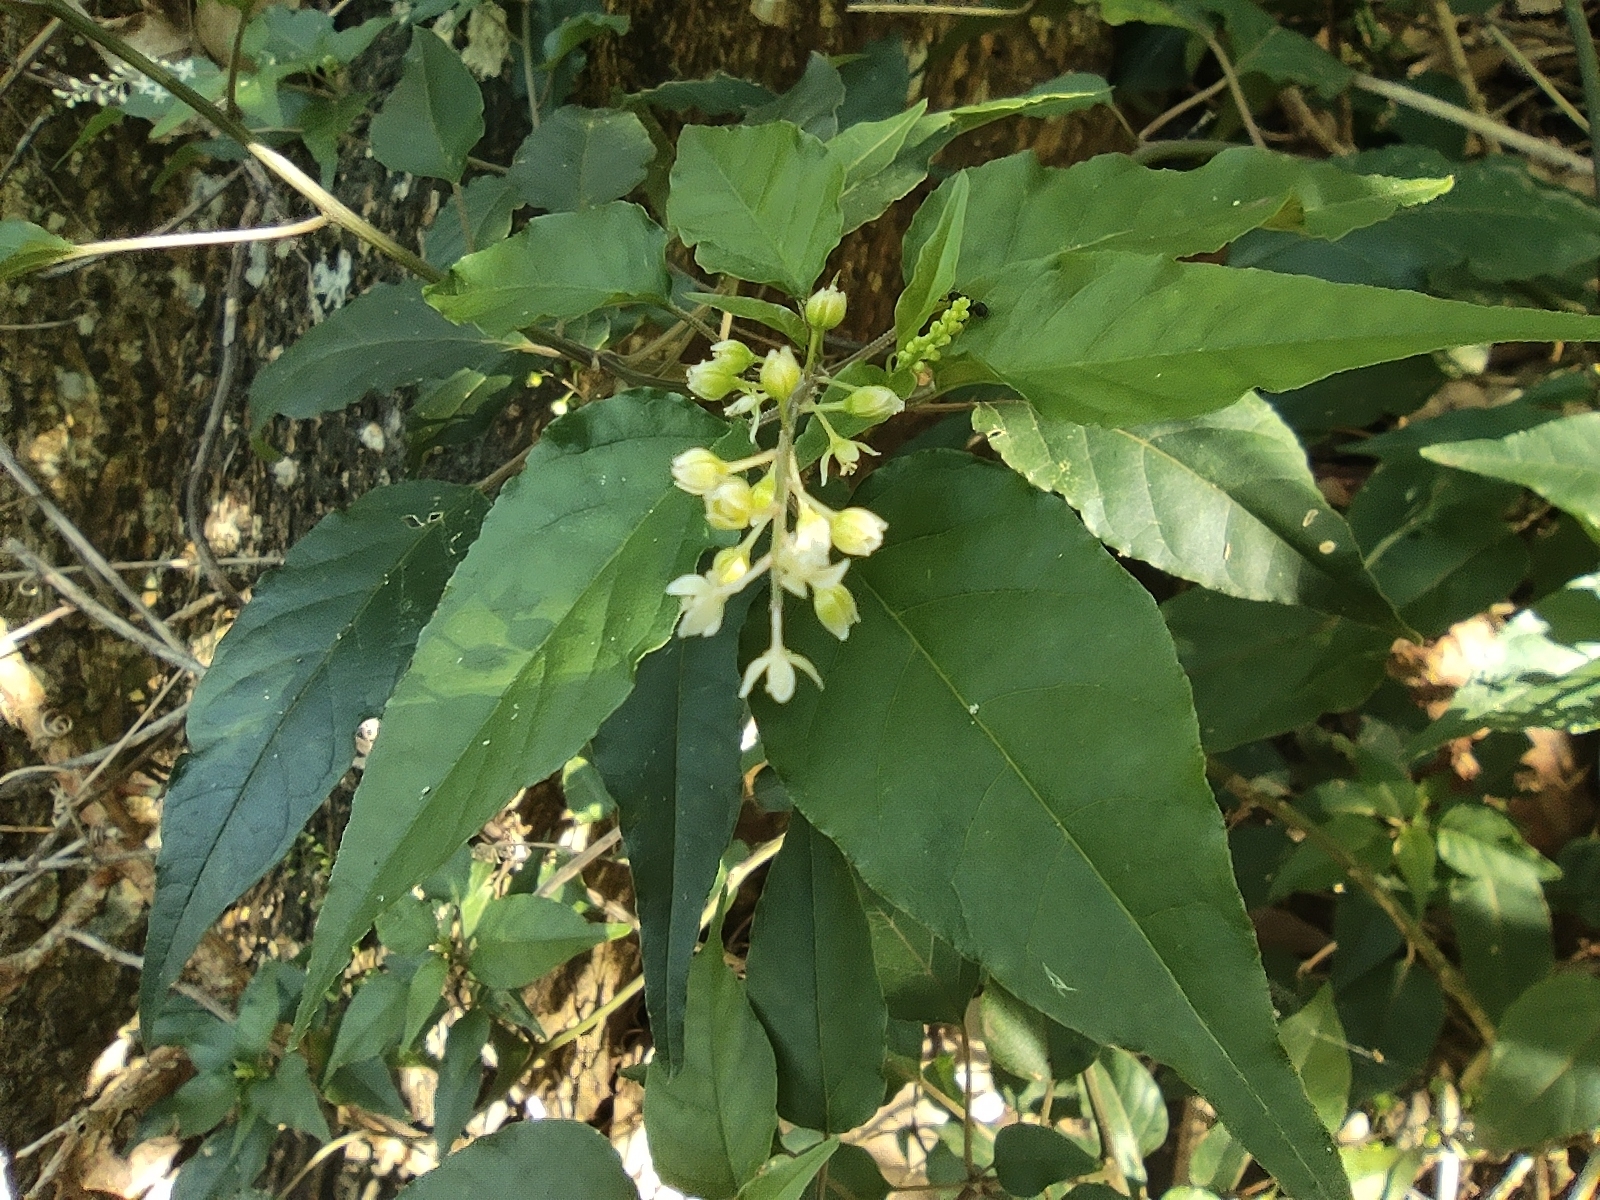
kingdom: Plantae
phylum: Tracheophyta
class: Magnoliopsida
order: Caryophyllales
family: Phytolaccaceae
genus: Rivina
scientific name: Rivina humilis
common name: Rougeplant
